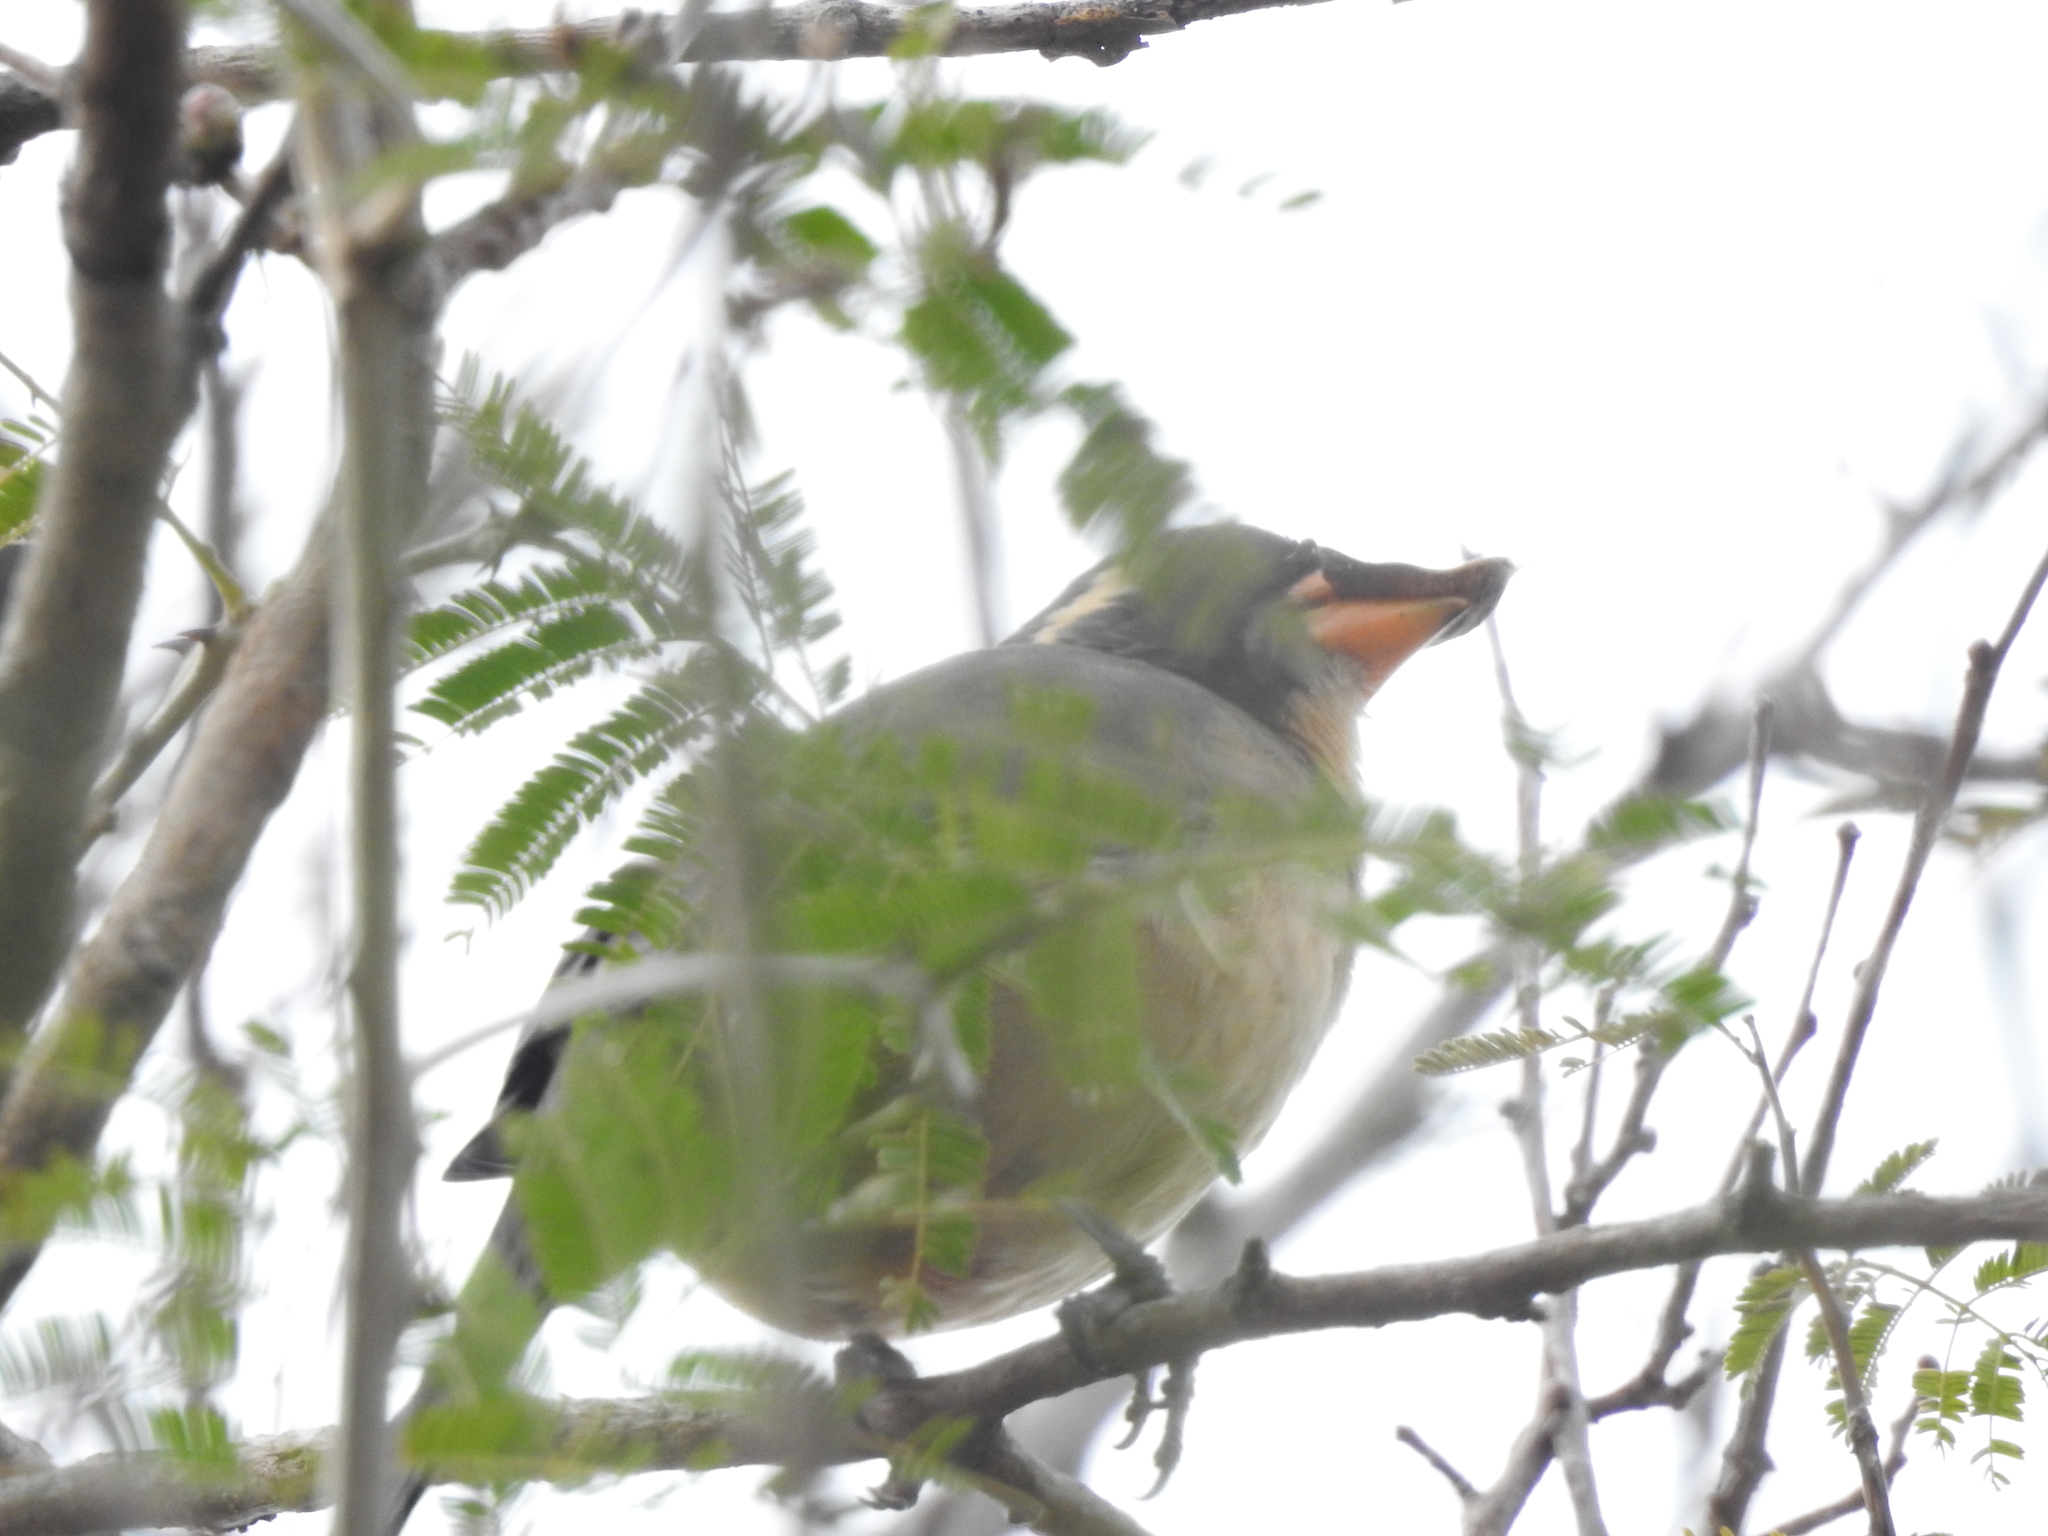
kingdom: Animalia
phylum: Chordata
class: Aves
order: Passeriformes
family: Thraupidae
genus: Saltator
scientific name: Saltator aurantiirostris
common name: Golden-billed saltator
